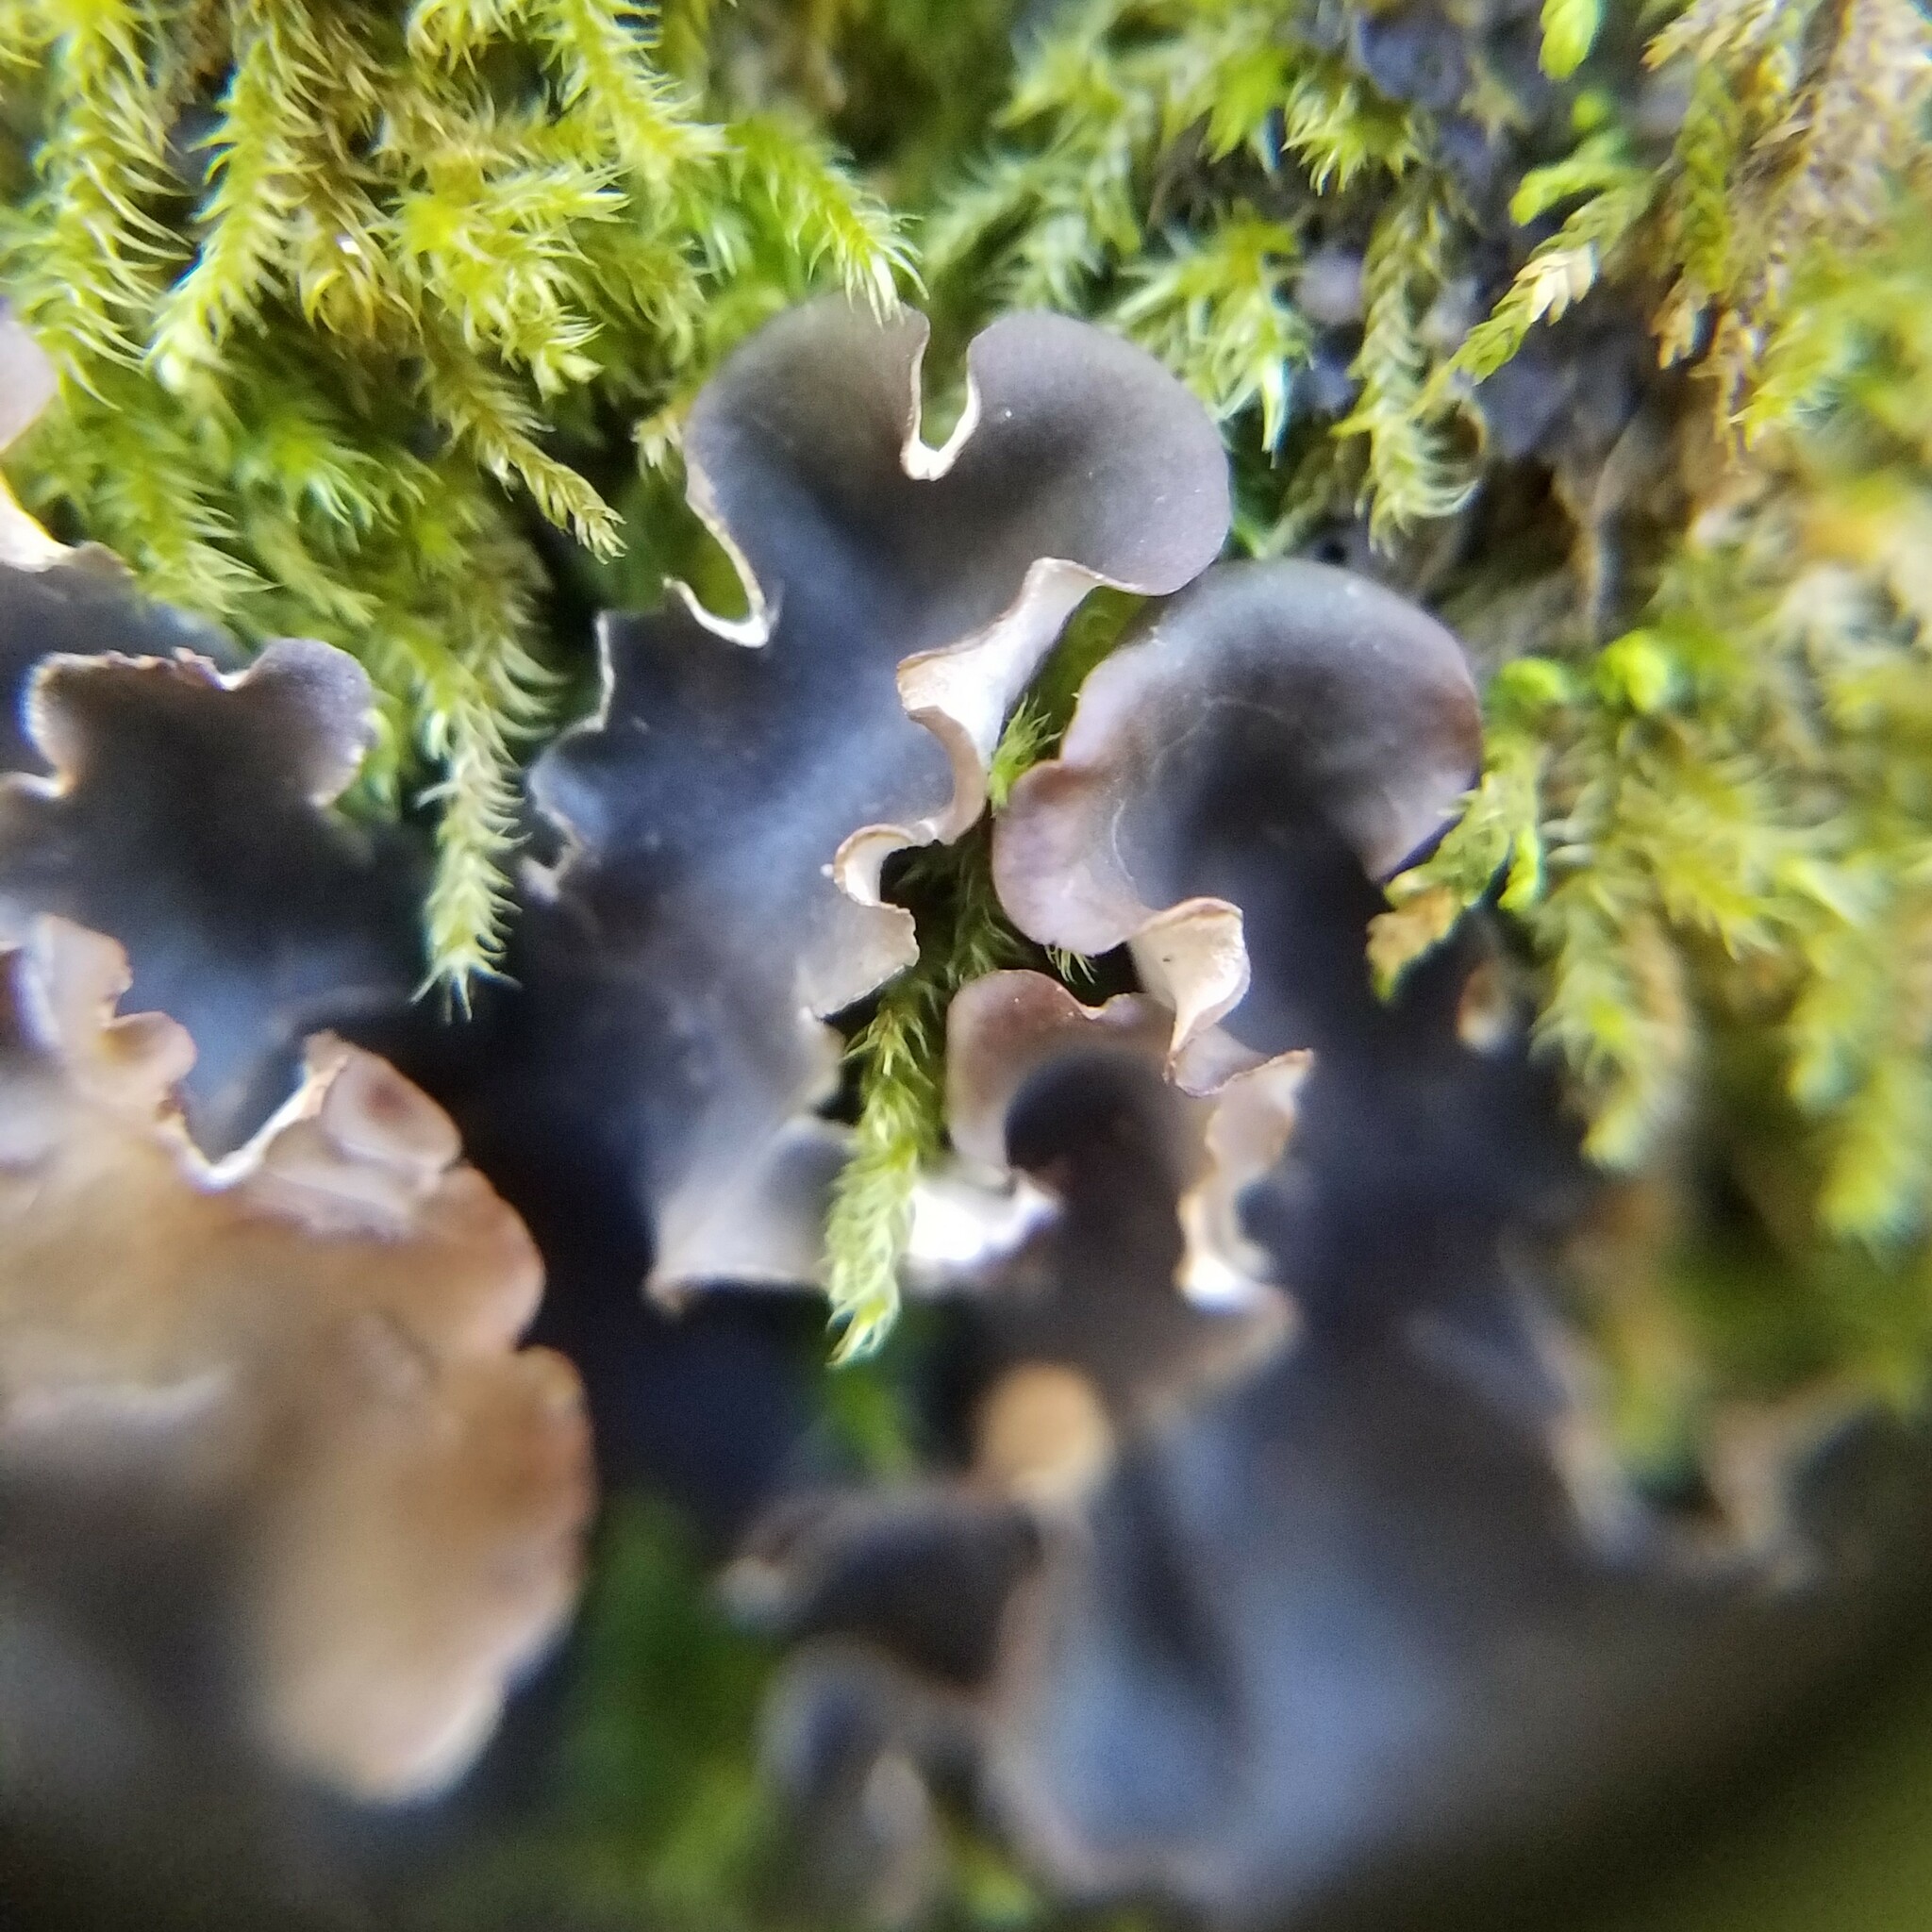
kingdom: Fungi
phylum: Ascomycota
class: Lecanoromycetes
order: Peltigerales
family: Peltigeraceae
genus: Peltigera
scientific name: Peltigera praetextata
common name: Scaly dog-lichen
